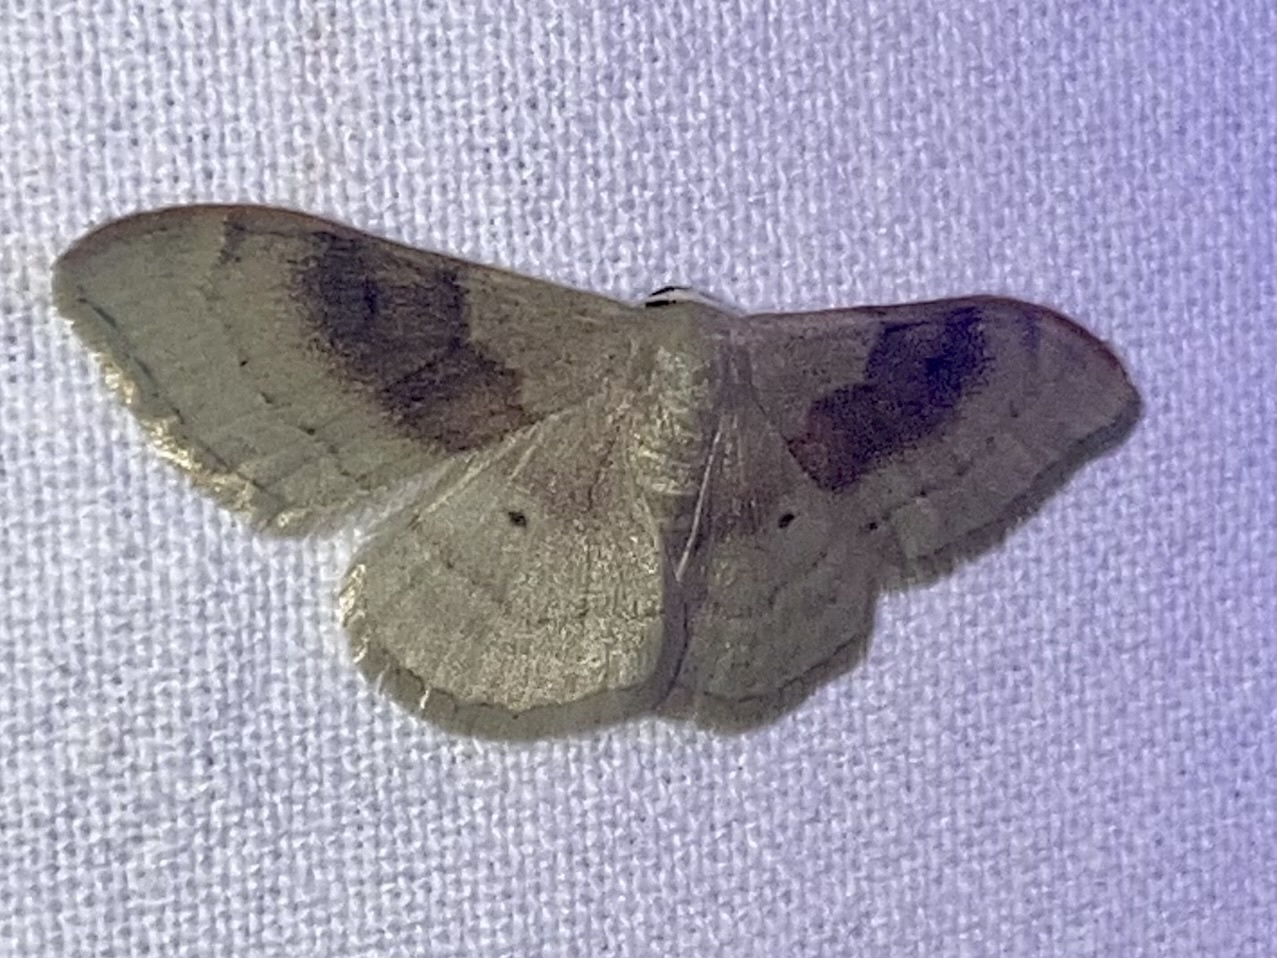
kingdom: Animalia
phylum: Arthropoda
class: Insecta
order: Lepidoptera
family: Geometridae
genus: Idaea
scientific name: Idaea degeneraria
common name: Portland ribbon wave
